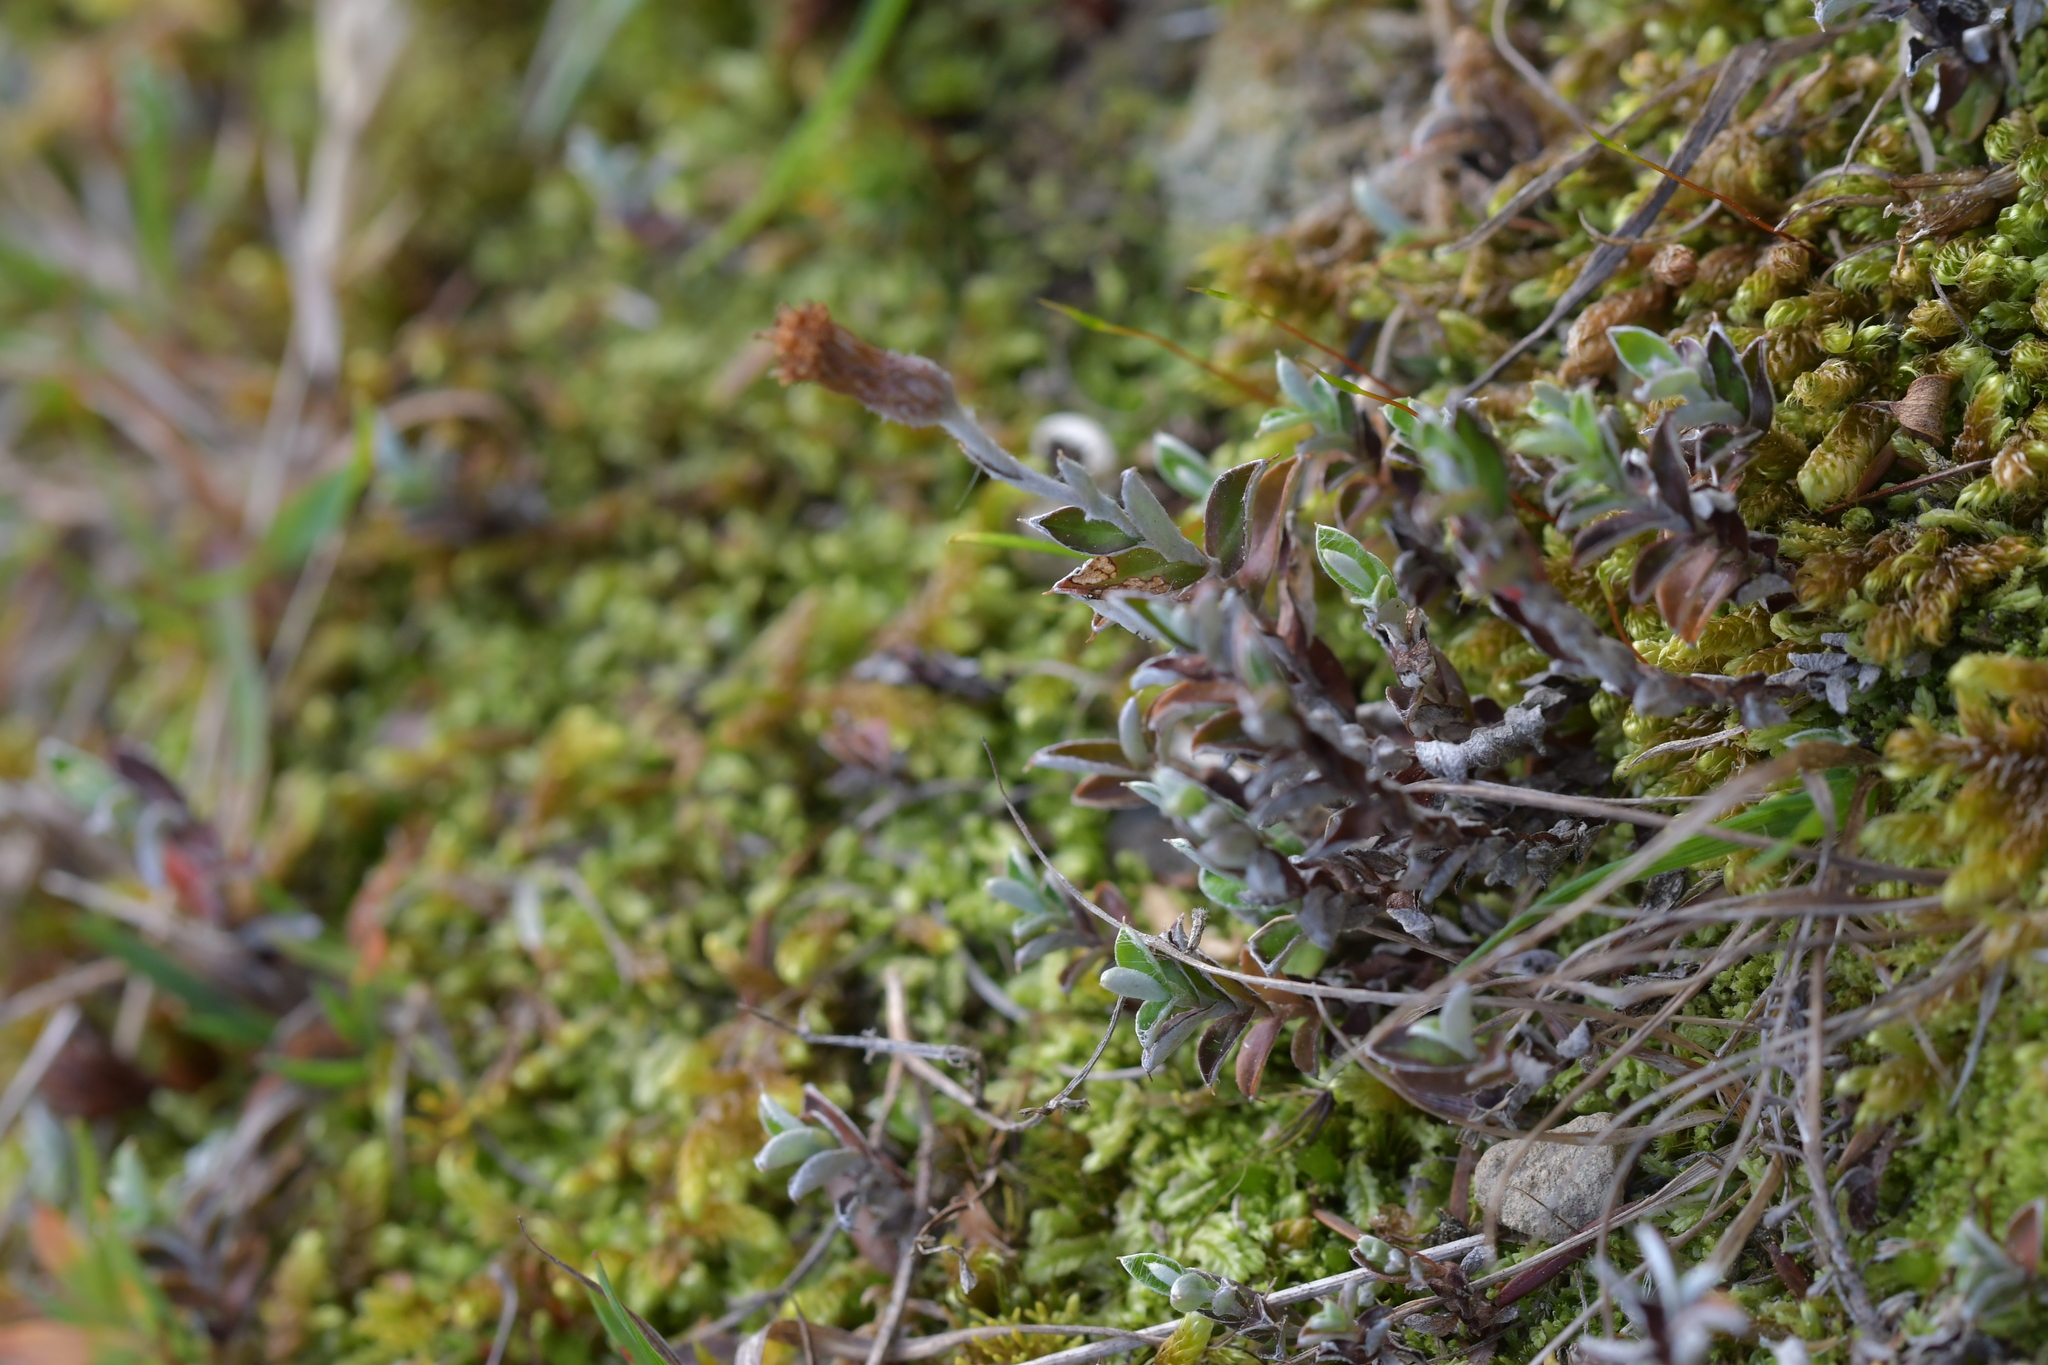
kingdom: Plantae
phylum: Tracheophyta
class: Magnoliopsida
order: Asterales
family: Asteraceae
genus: Helichrysum
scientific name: Helichrysum filicaule
